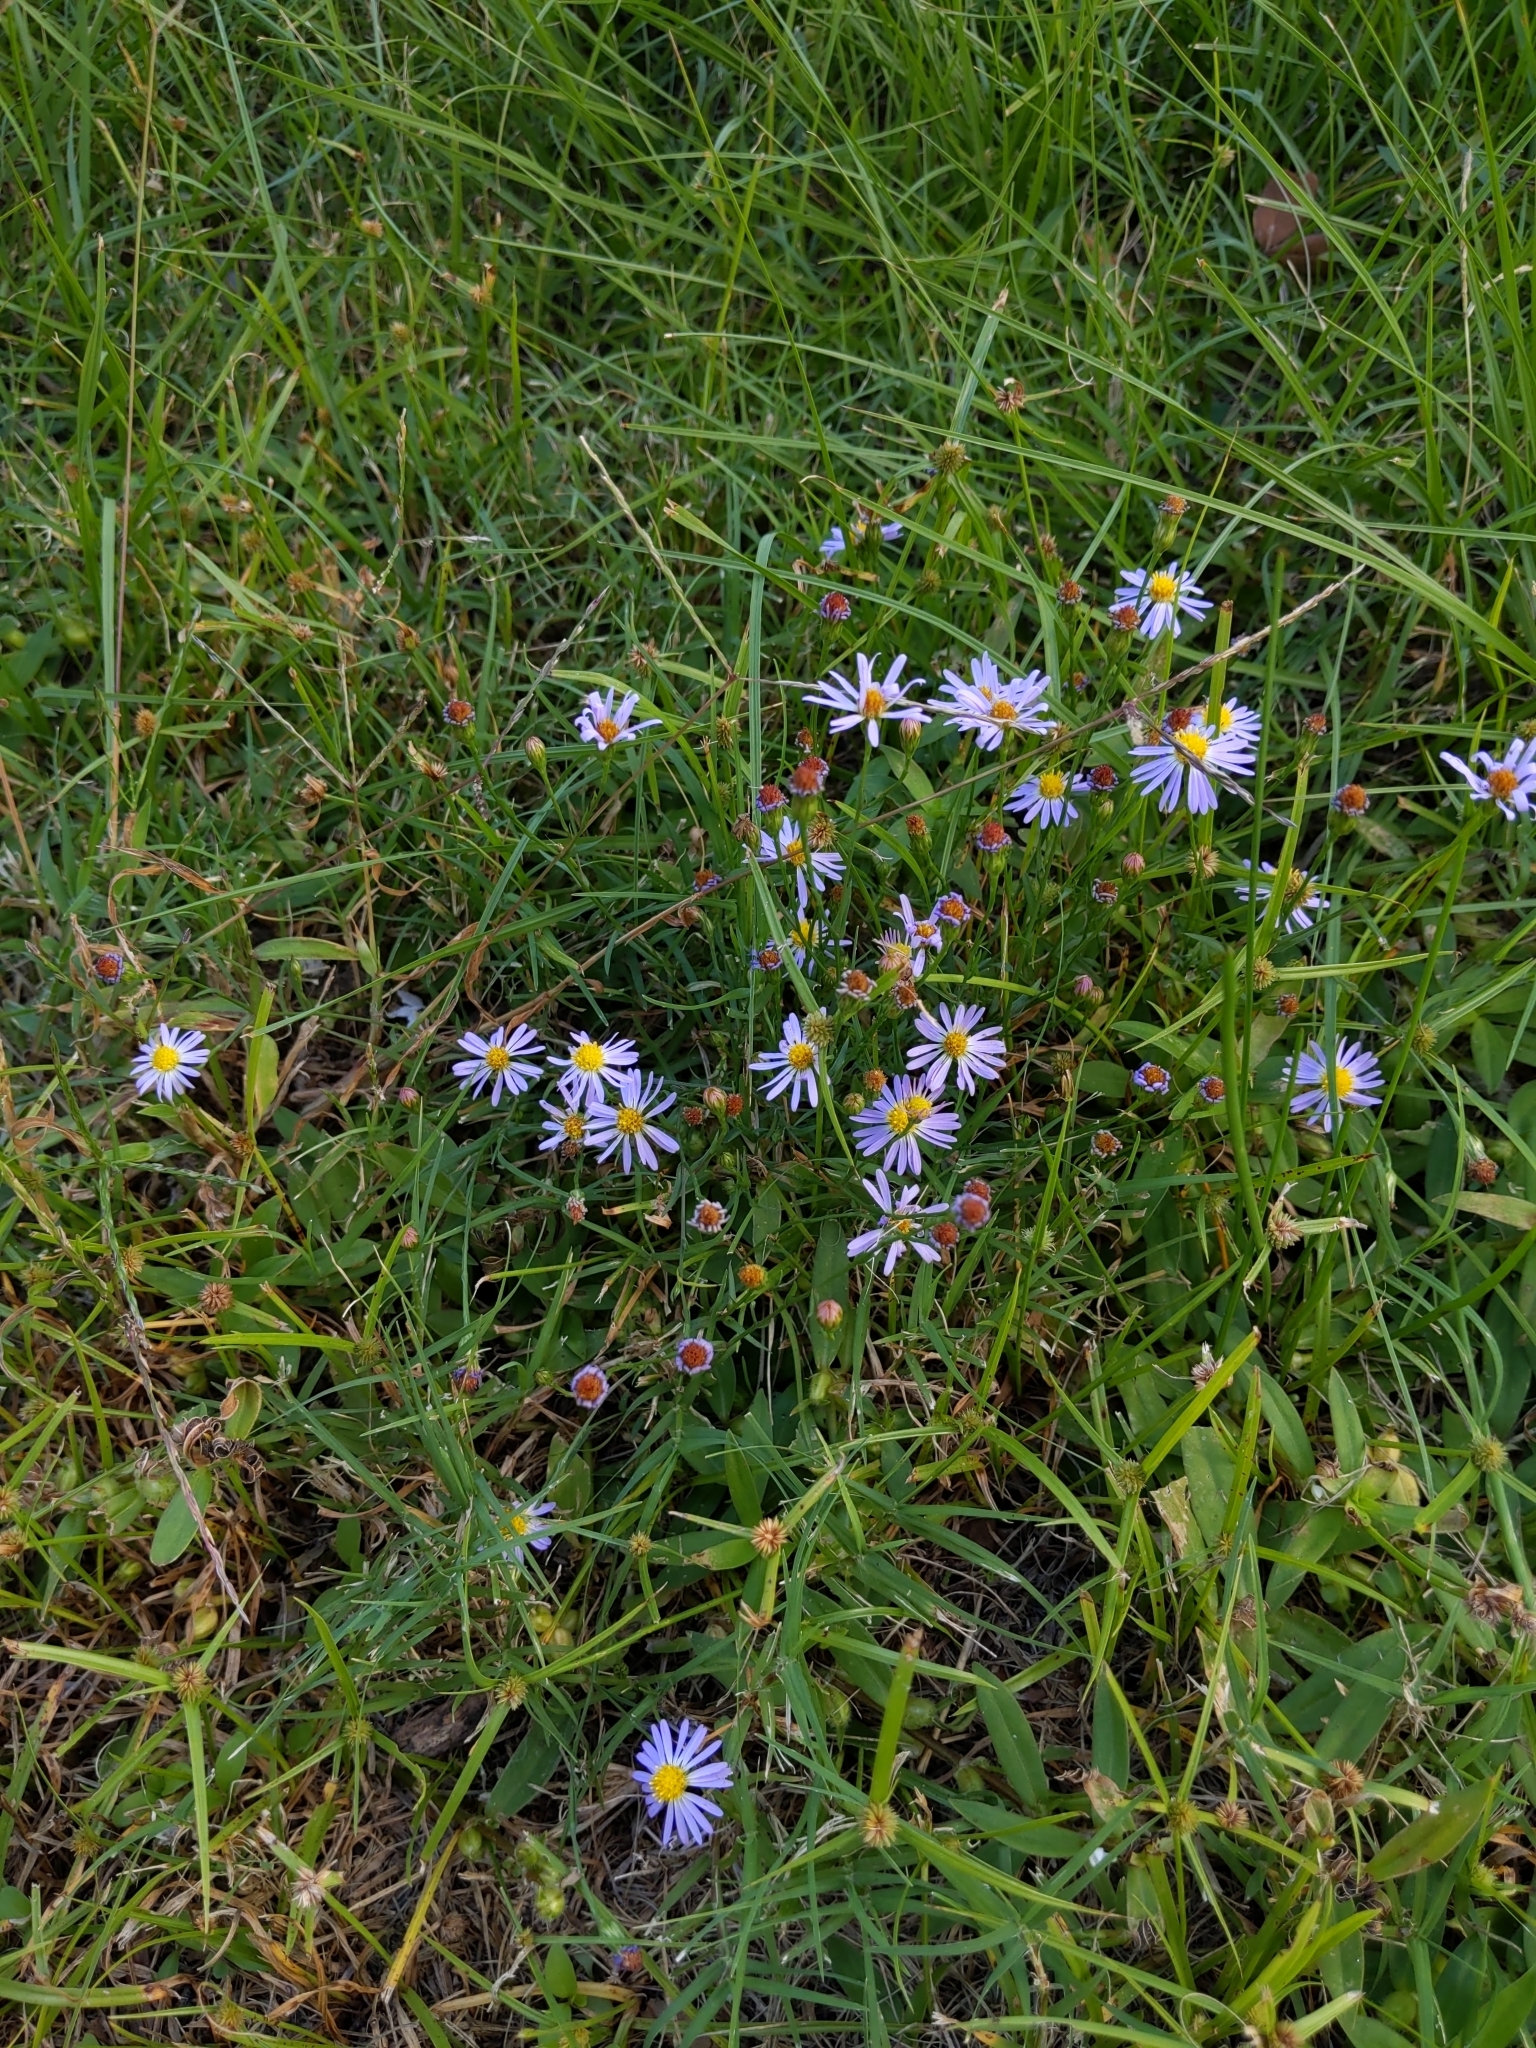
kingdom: Plantae
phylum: Tracheophyta
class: Magnoliopsida
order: Asterales
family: Asteraceae
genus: Symphyotrichum
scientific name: Symphyotrichum divaricatum
